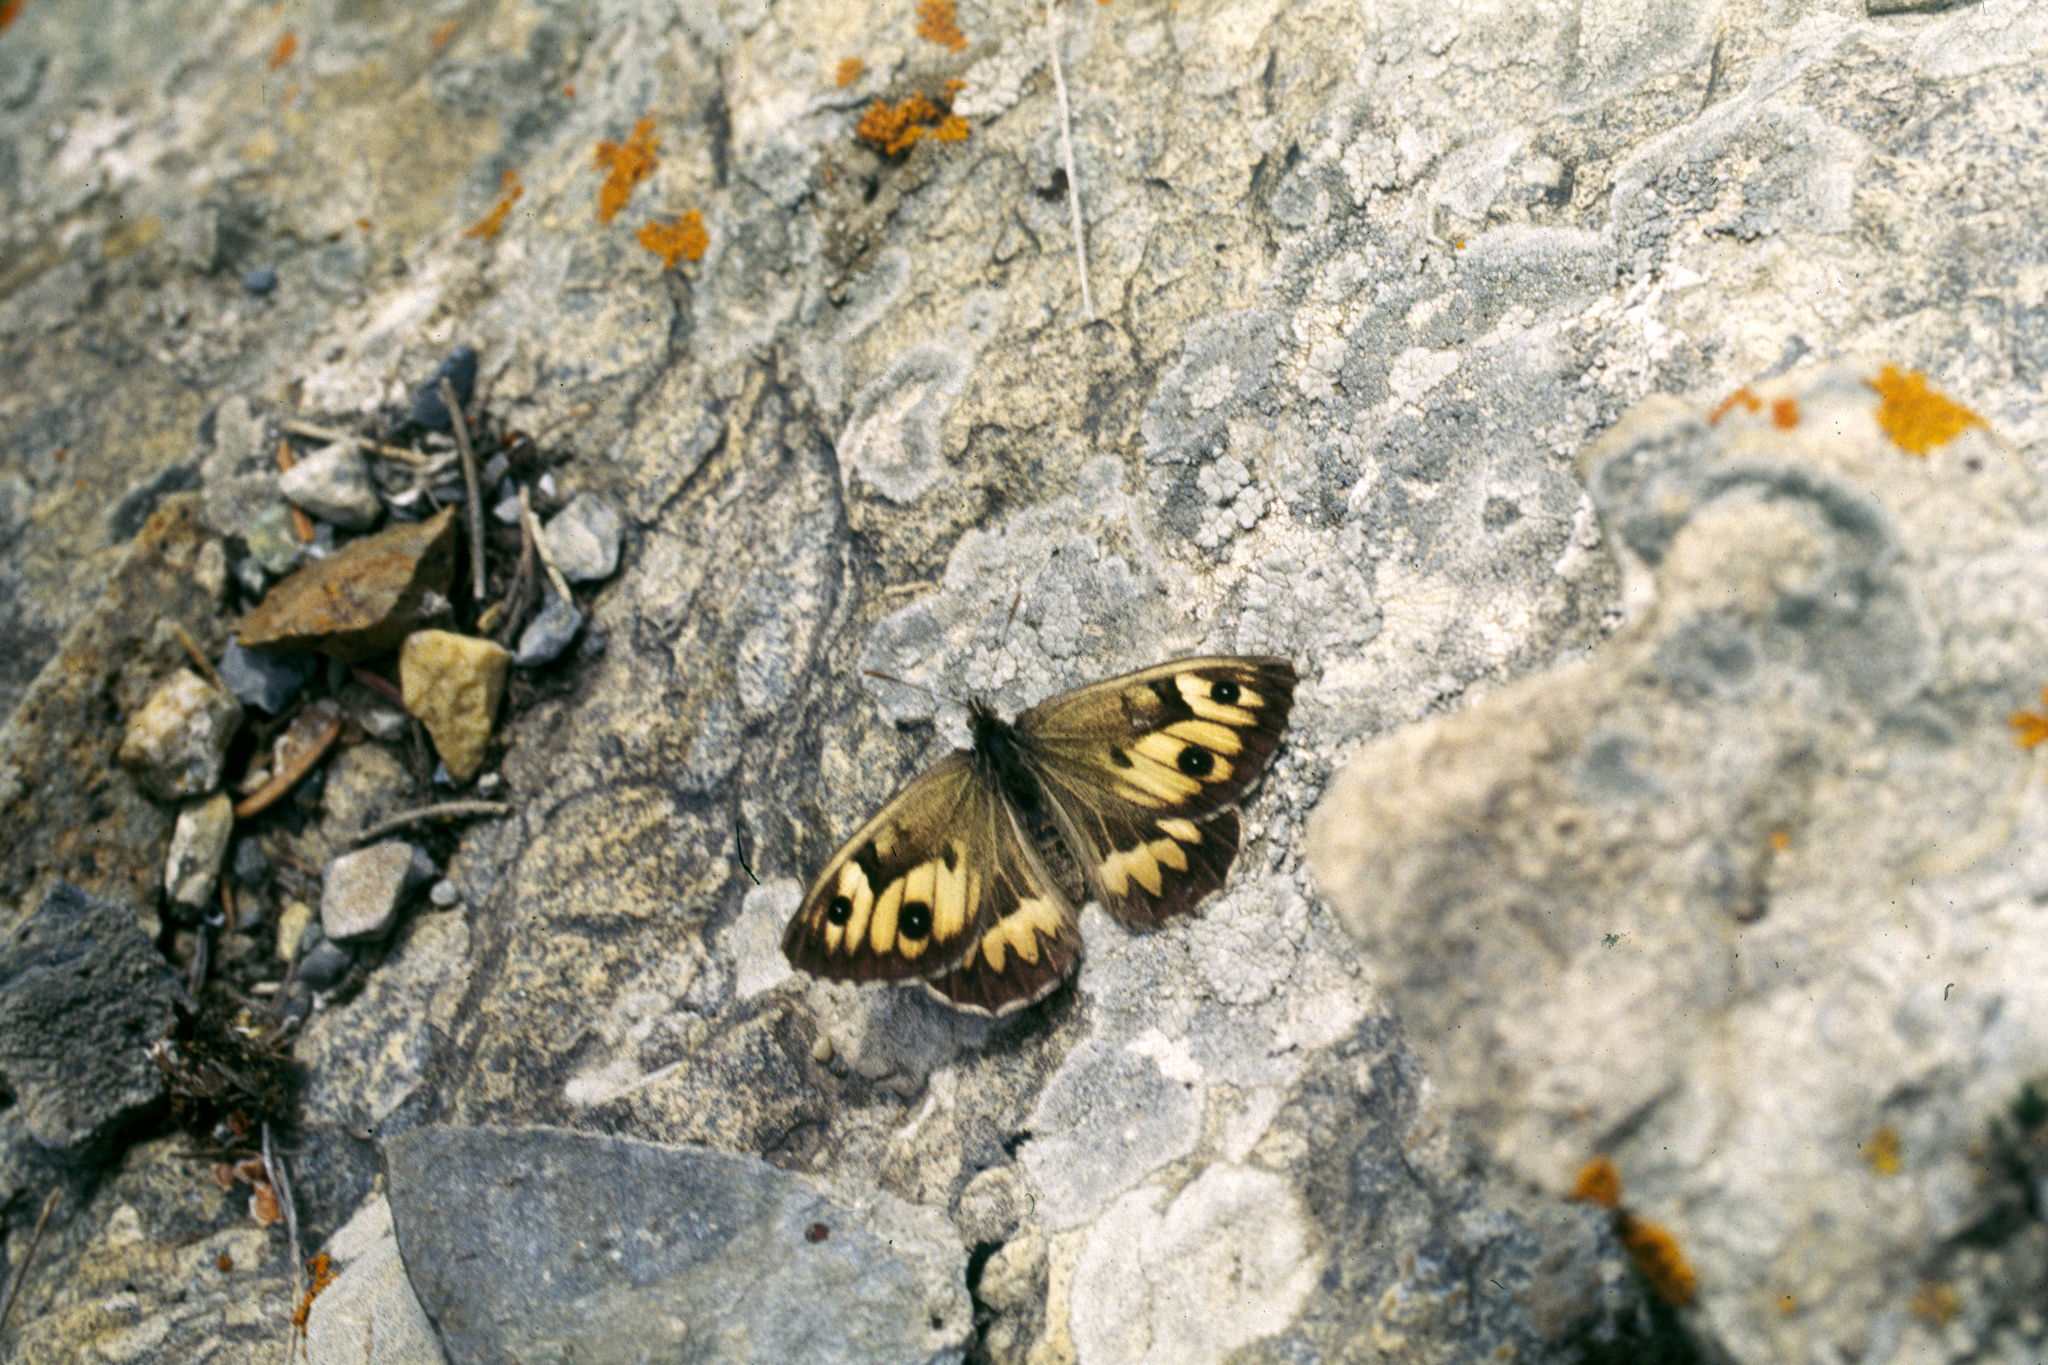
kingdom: Animalia
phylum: Arthropoda
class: Insecta
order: Lepidoptera
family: Nymphalidae
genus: Satyrus
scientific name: Satyrus
